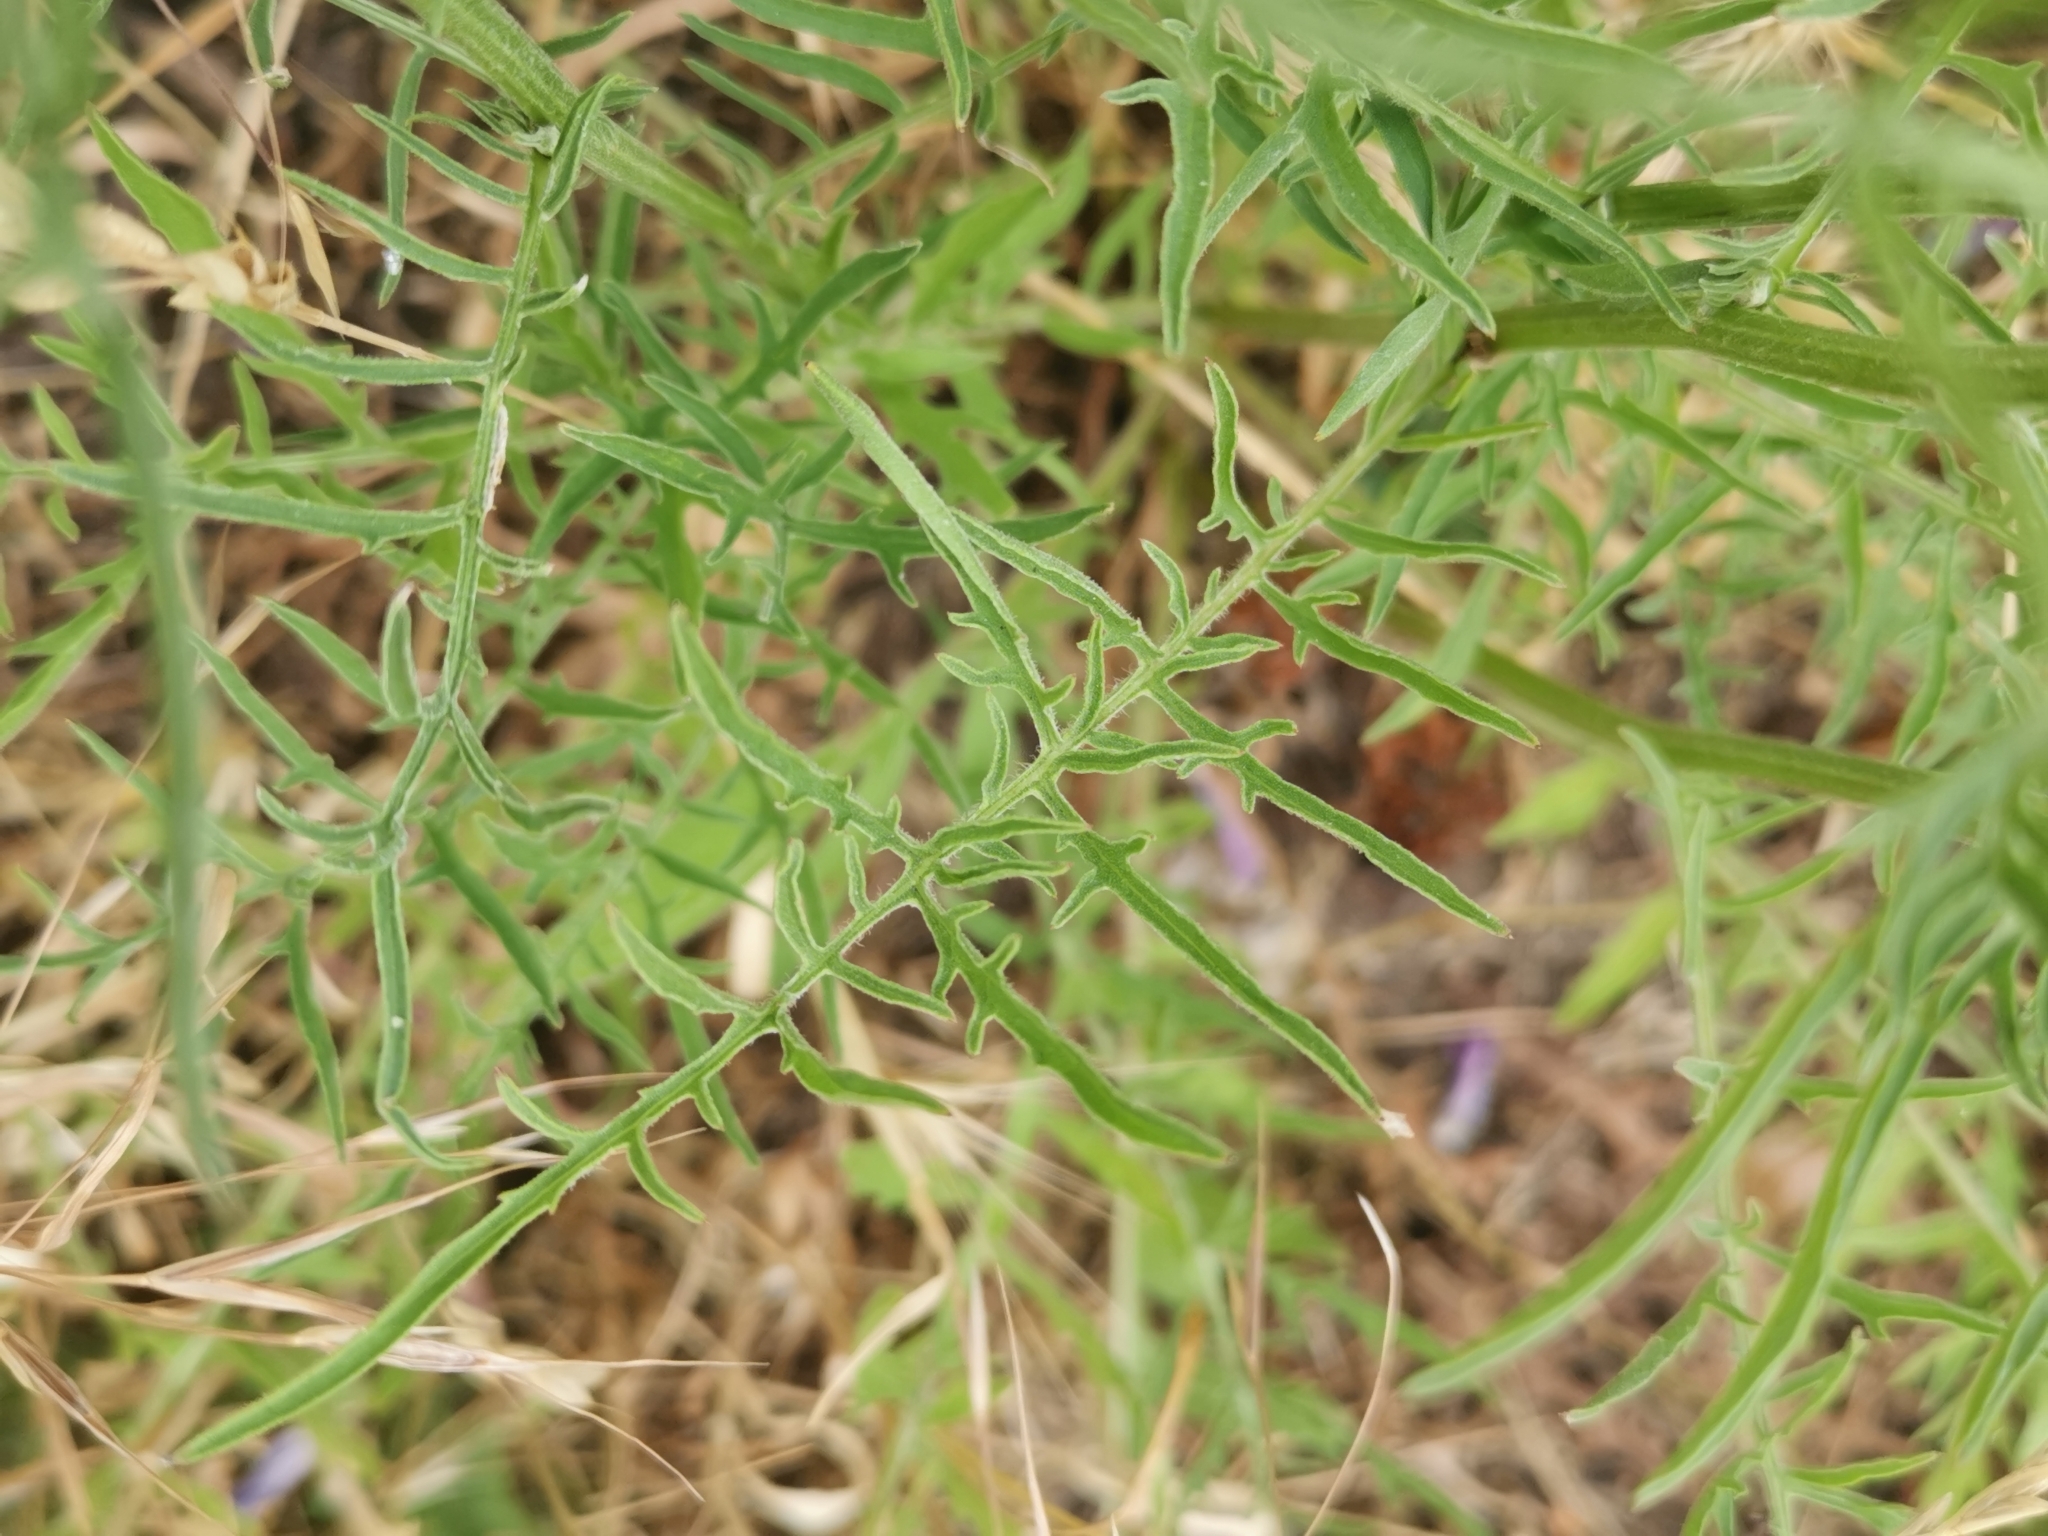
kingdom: Plantae
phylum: Tracheophyta
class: Magnoliopsida
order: Asterales
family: Asteraceae
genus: Centaurea
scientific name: Centaurea scabiosa
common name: Greater knapweed
